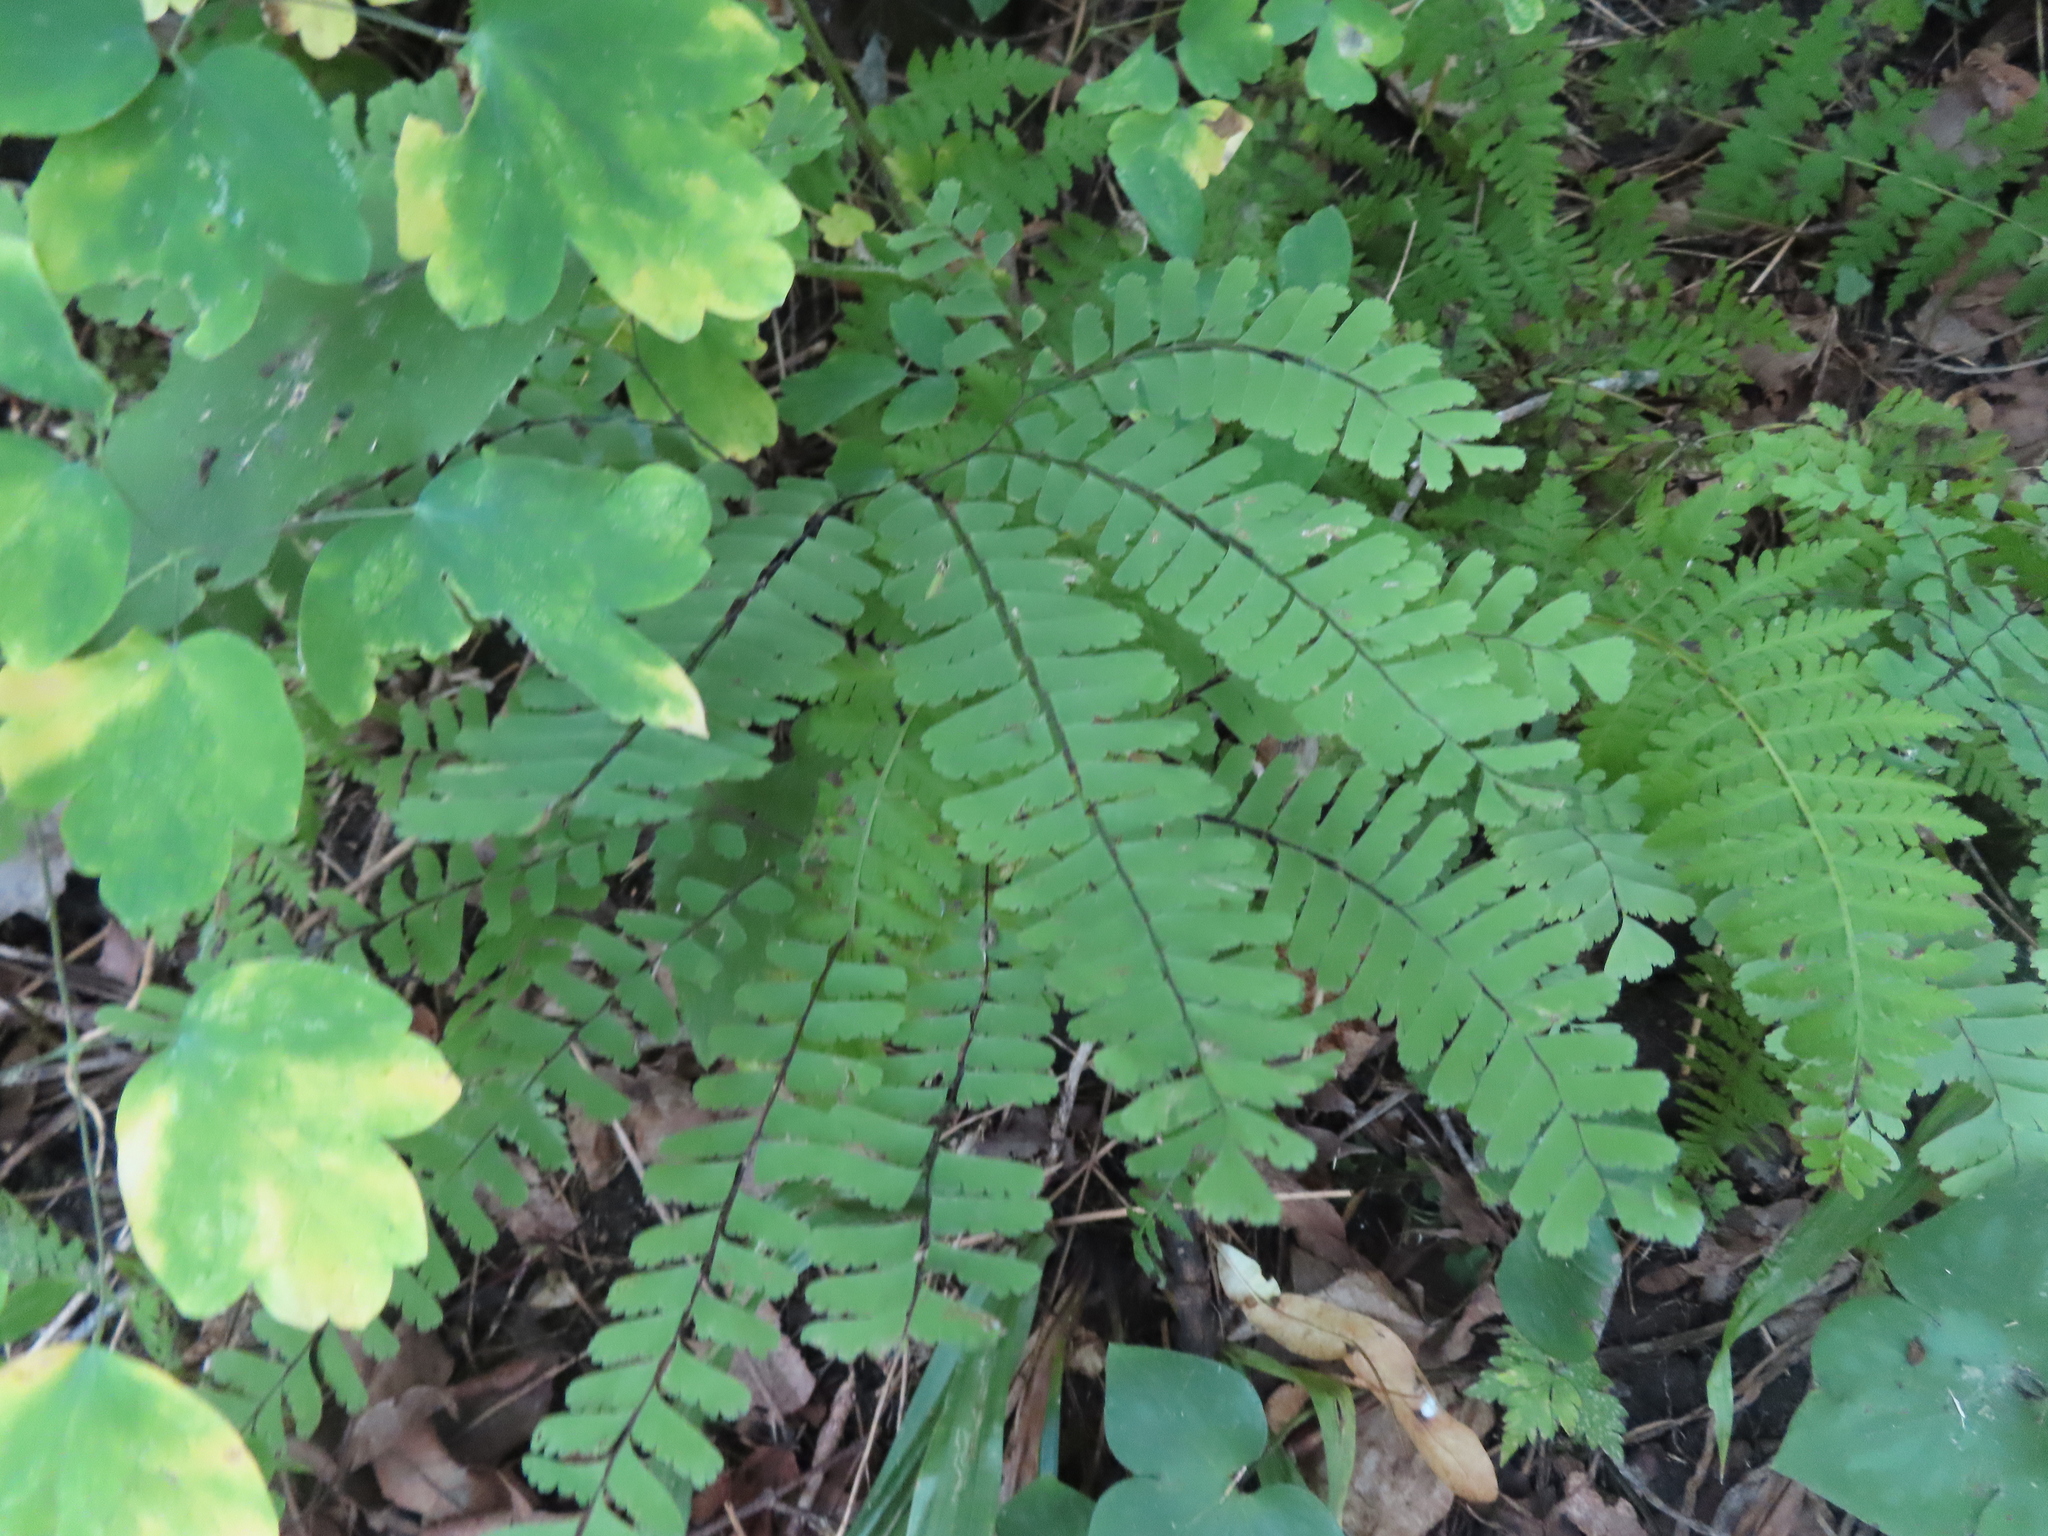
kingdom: Plantae
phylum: Tracheophyta
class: Polypodiopsida
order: Polypodiales
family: Pteridaceae
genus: Adiantum
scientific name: Adiantum pedatum
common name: Five-finger fern
